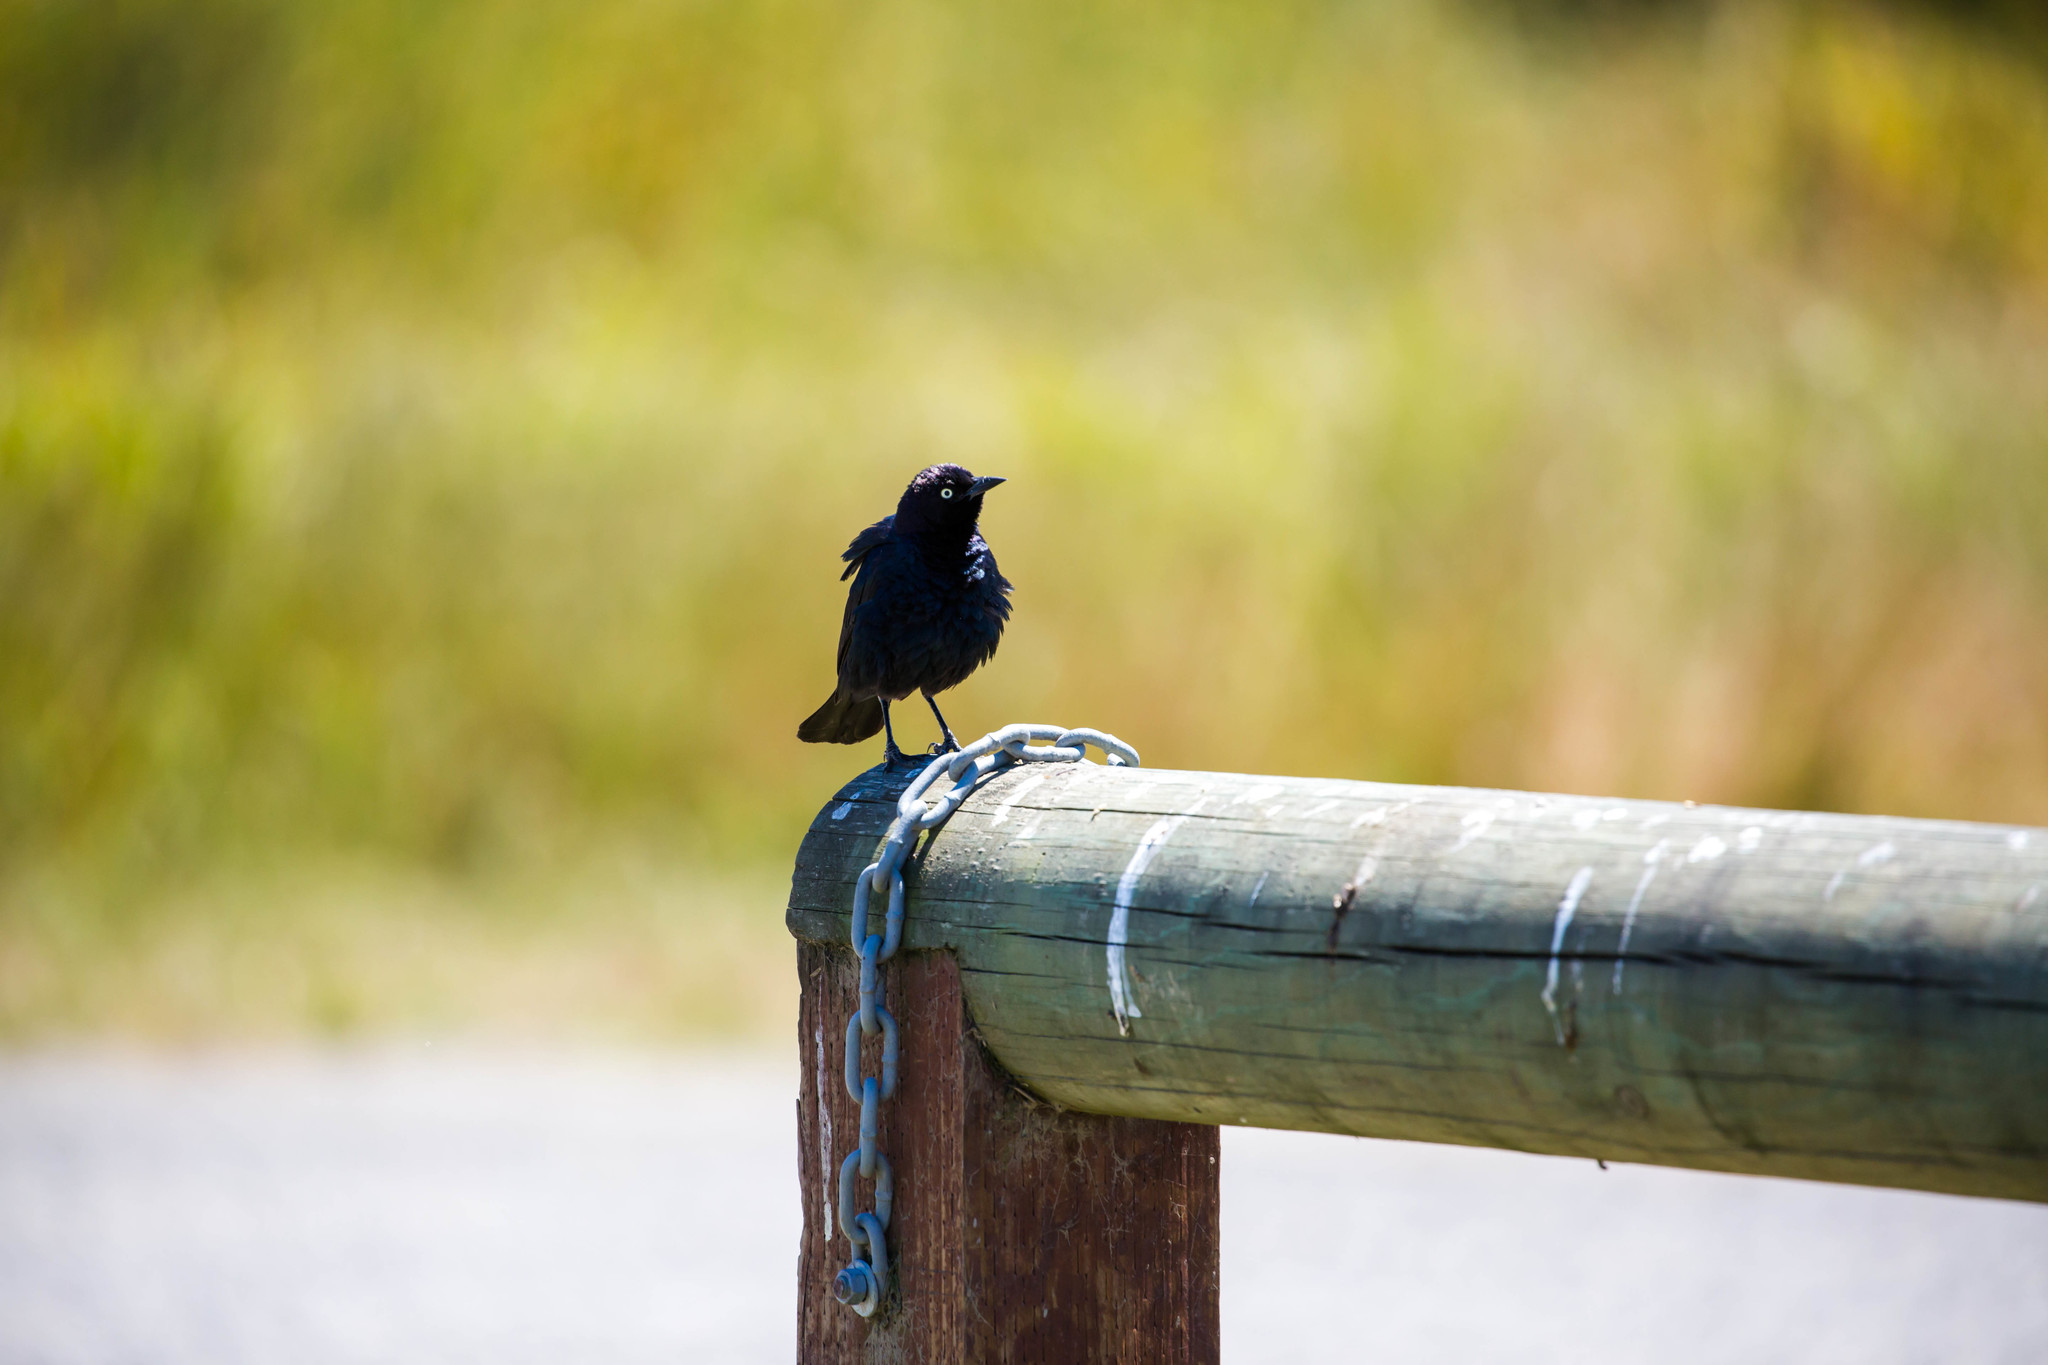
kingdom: Animalia
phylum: Chordata
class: Aves
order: Passeriformes
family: Icteridae
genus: Euphagus
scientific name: Euphagus cyanocephalus
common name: Brewer's blackbird
